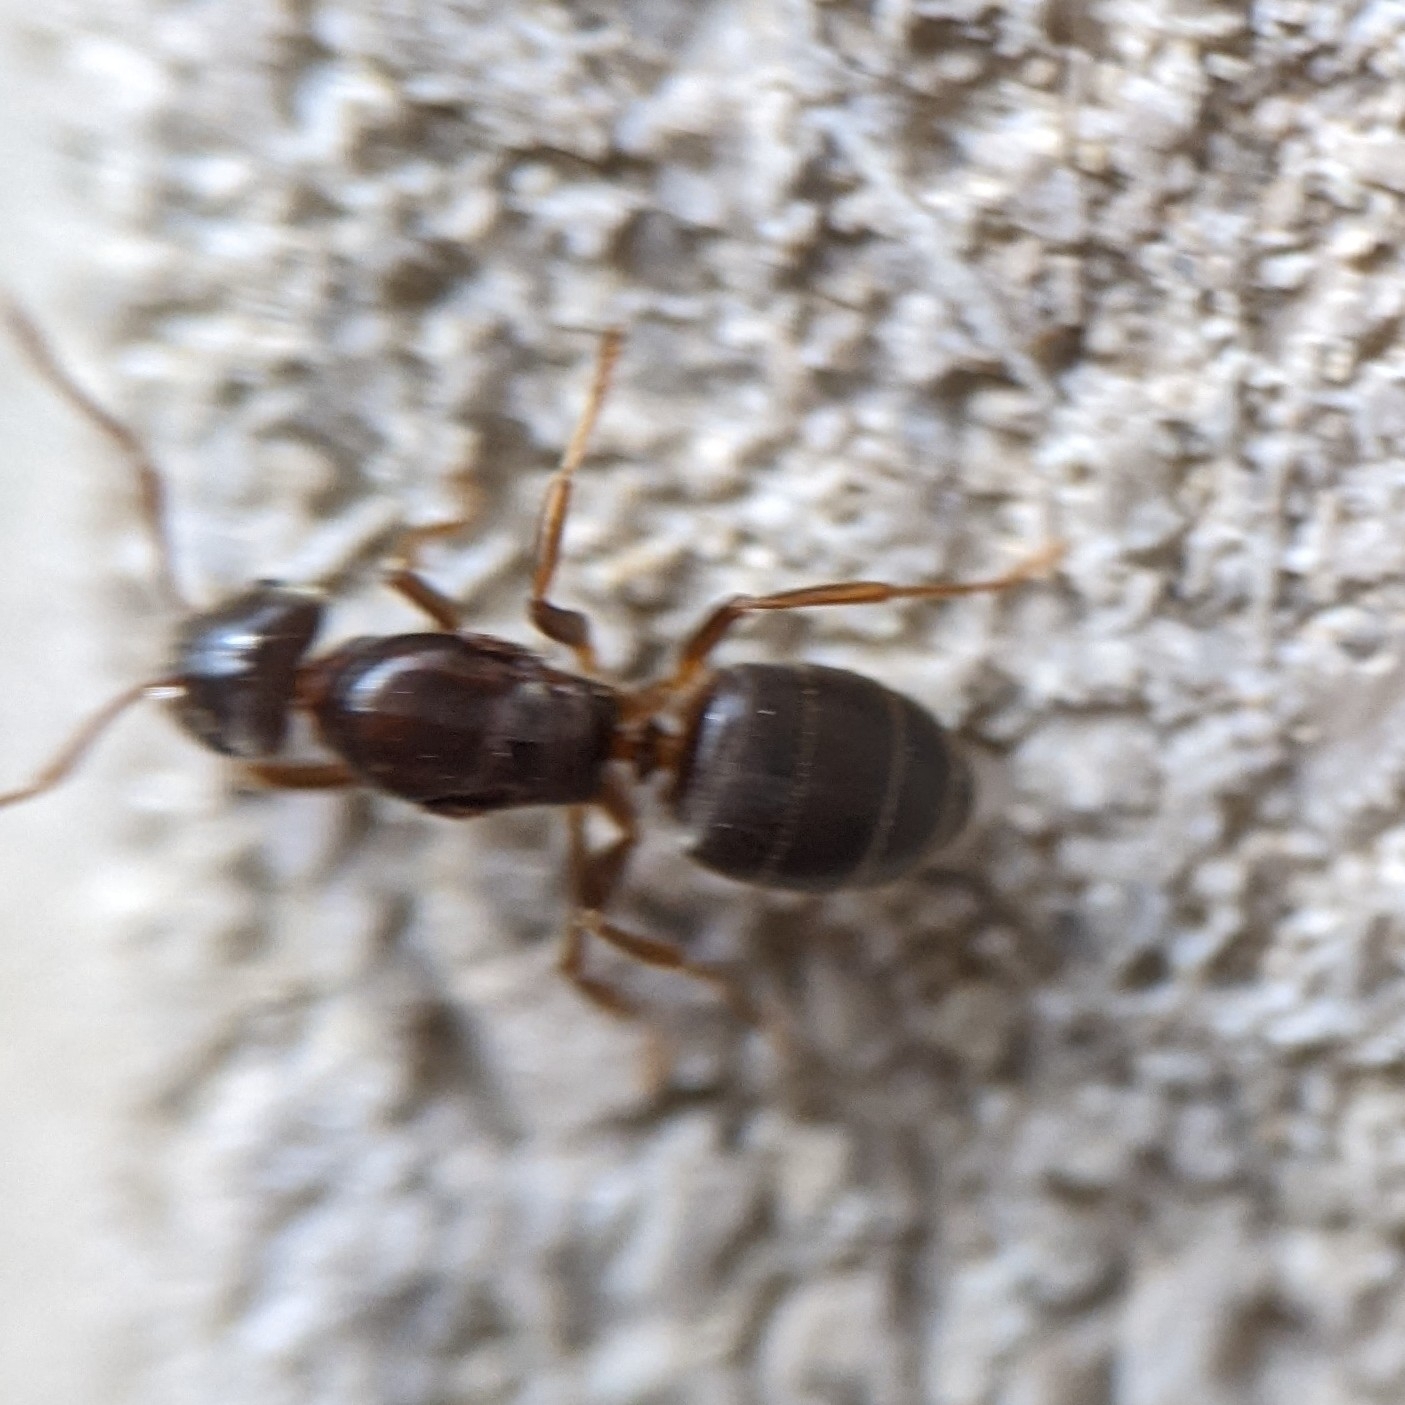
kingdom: Animalia
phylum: Arthropoda
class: Insecta
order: Hymenoptera
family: Formicidae
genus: Lasius
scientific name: Lasius aphidicola
